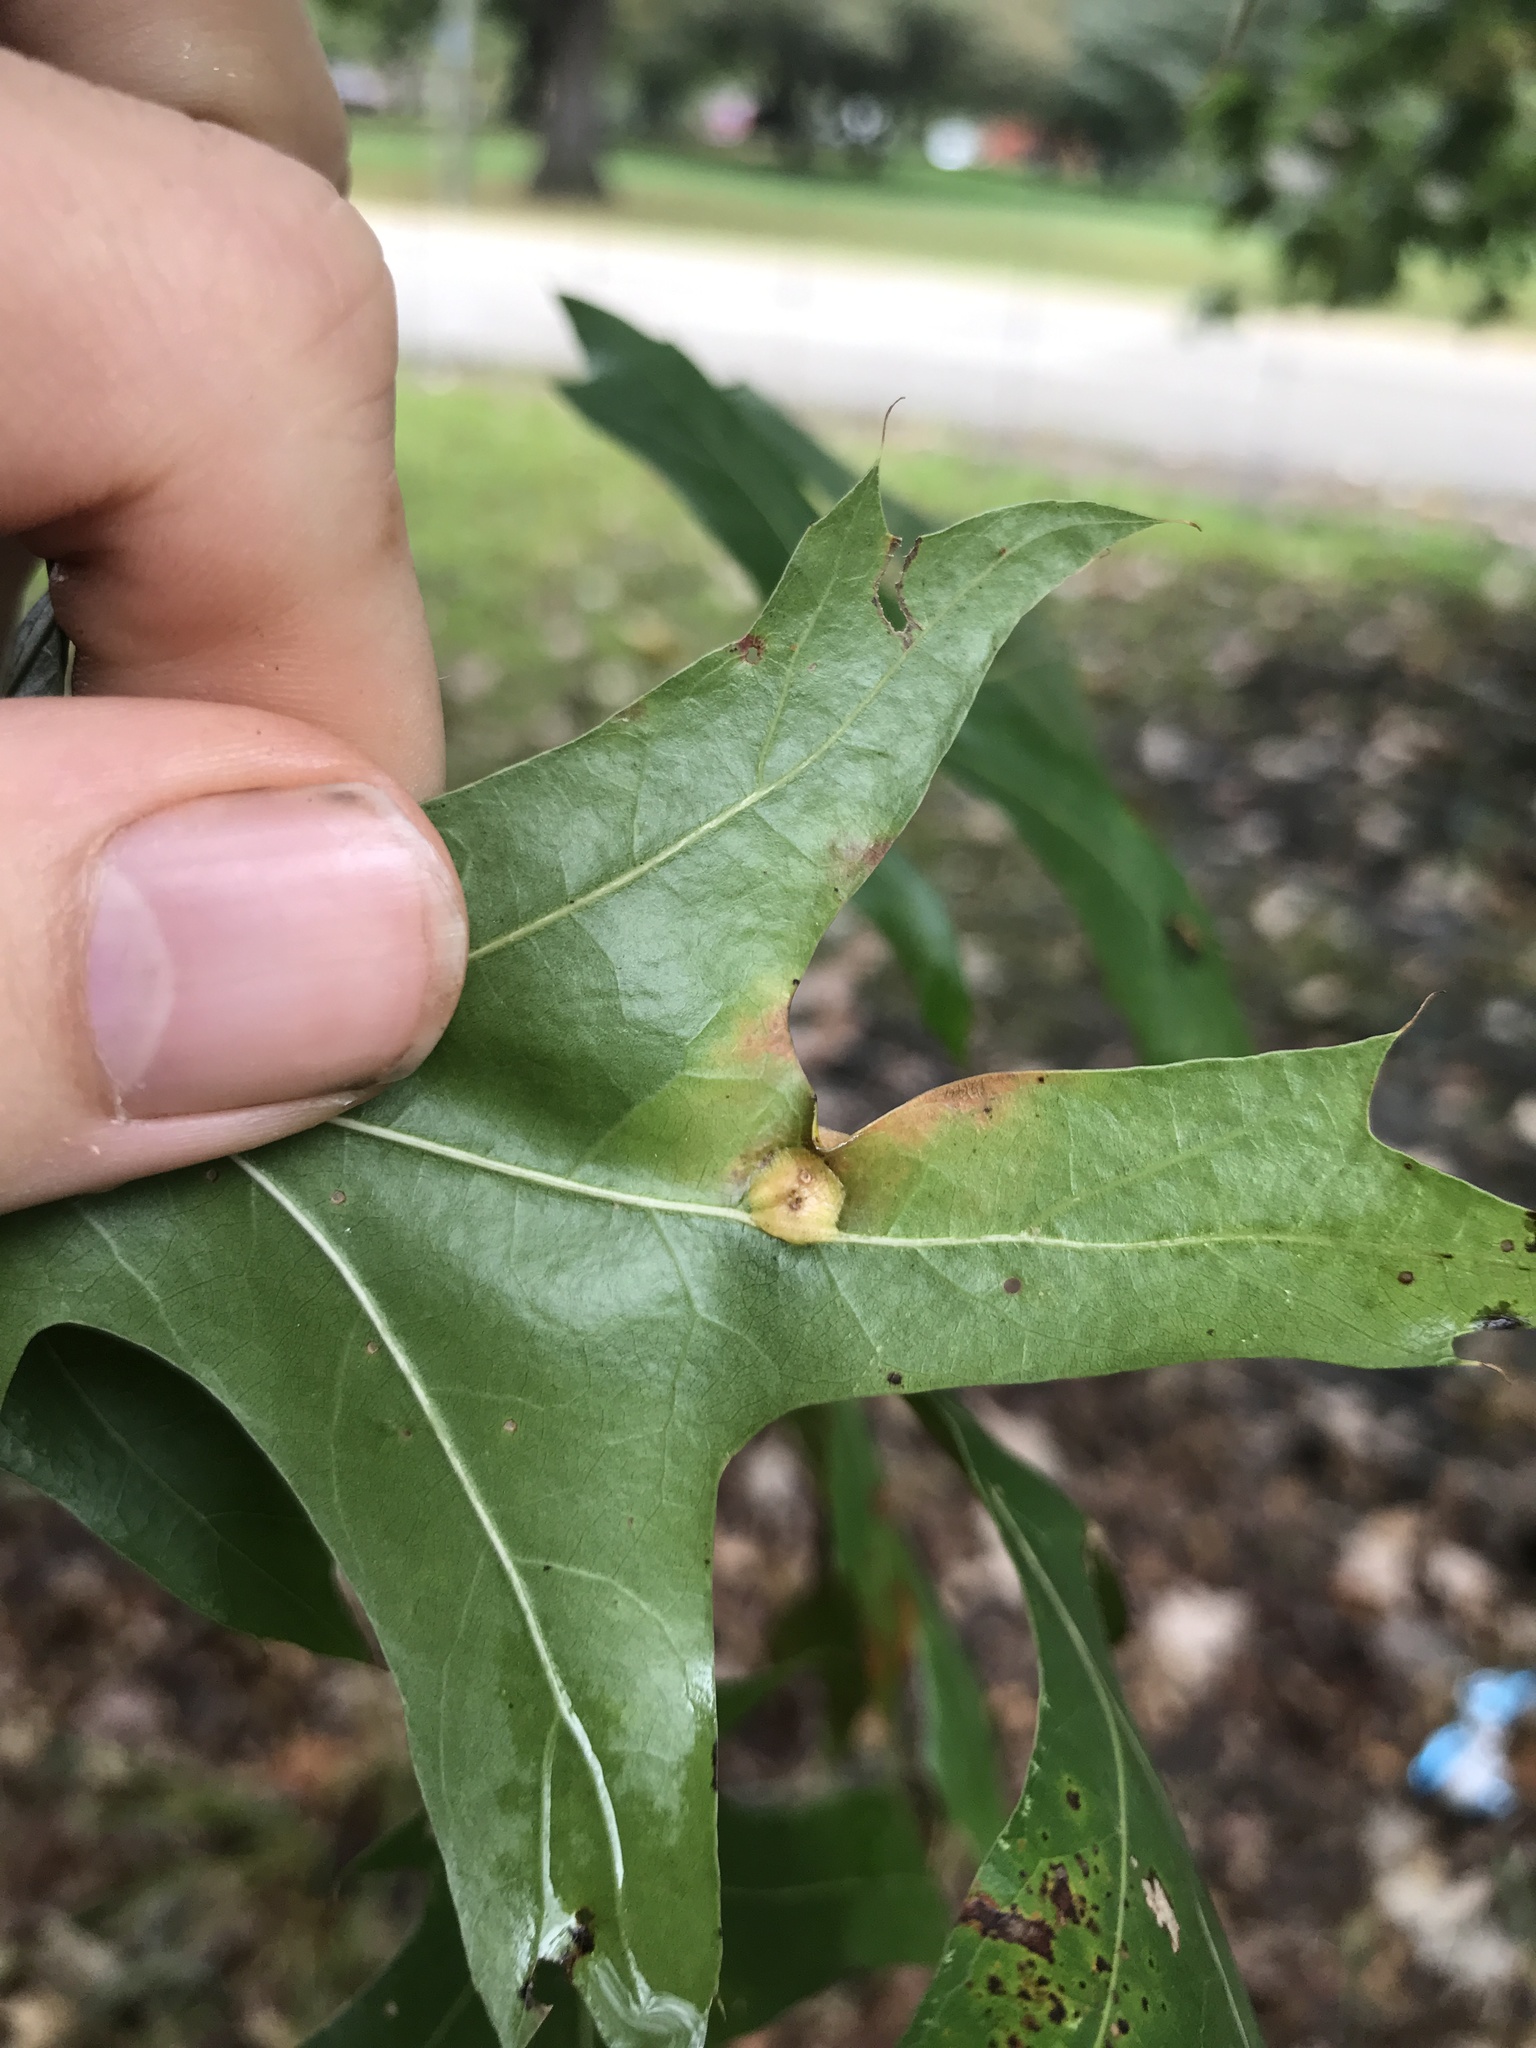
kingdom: Animalia
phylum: Arthropoda
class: Insecta
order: Diptera
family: Cecidomyiidae
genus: Polystepha
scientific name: Polystepha pilulae
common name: Oak leaf gall midge
